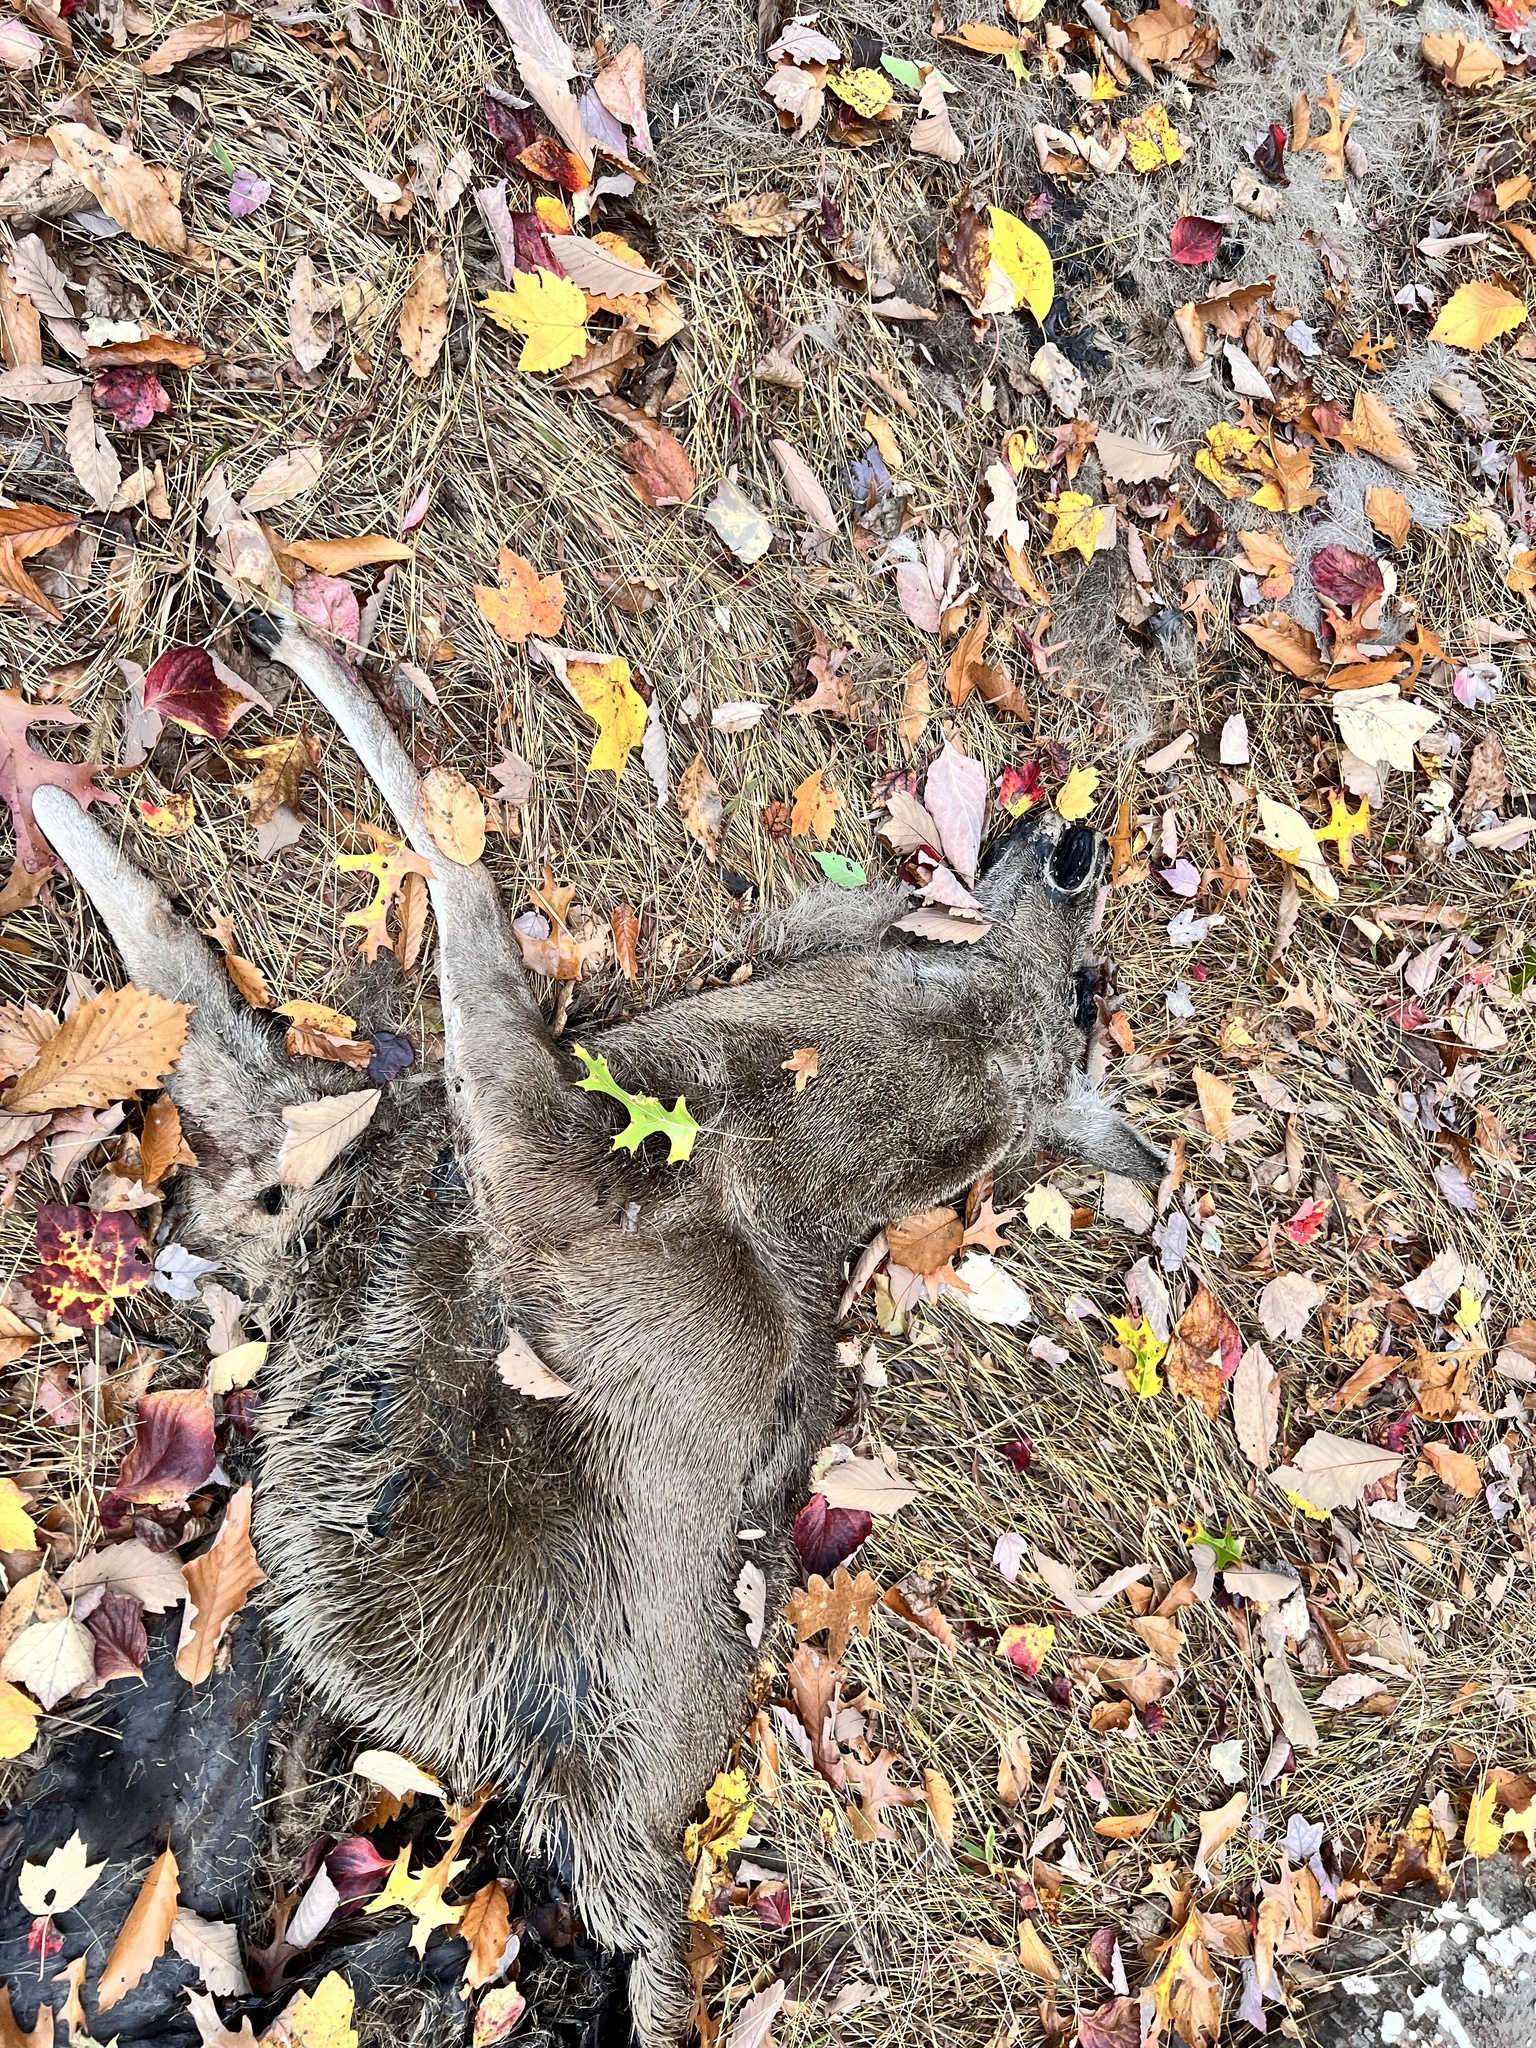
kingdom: Animalia
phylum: Chordata
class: Mammalia
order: Artiodactyla
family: Cervidae
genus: Odocoileus
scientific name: Odocoileus virginianus
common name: White-tailed deer
